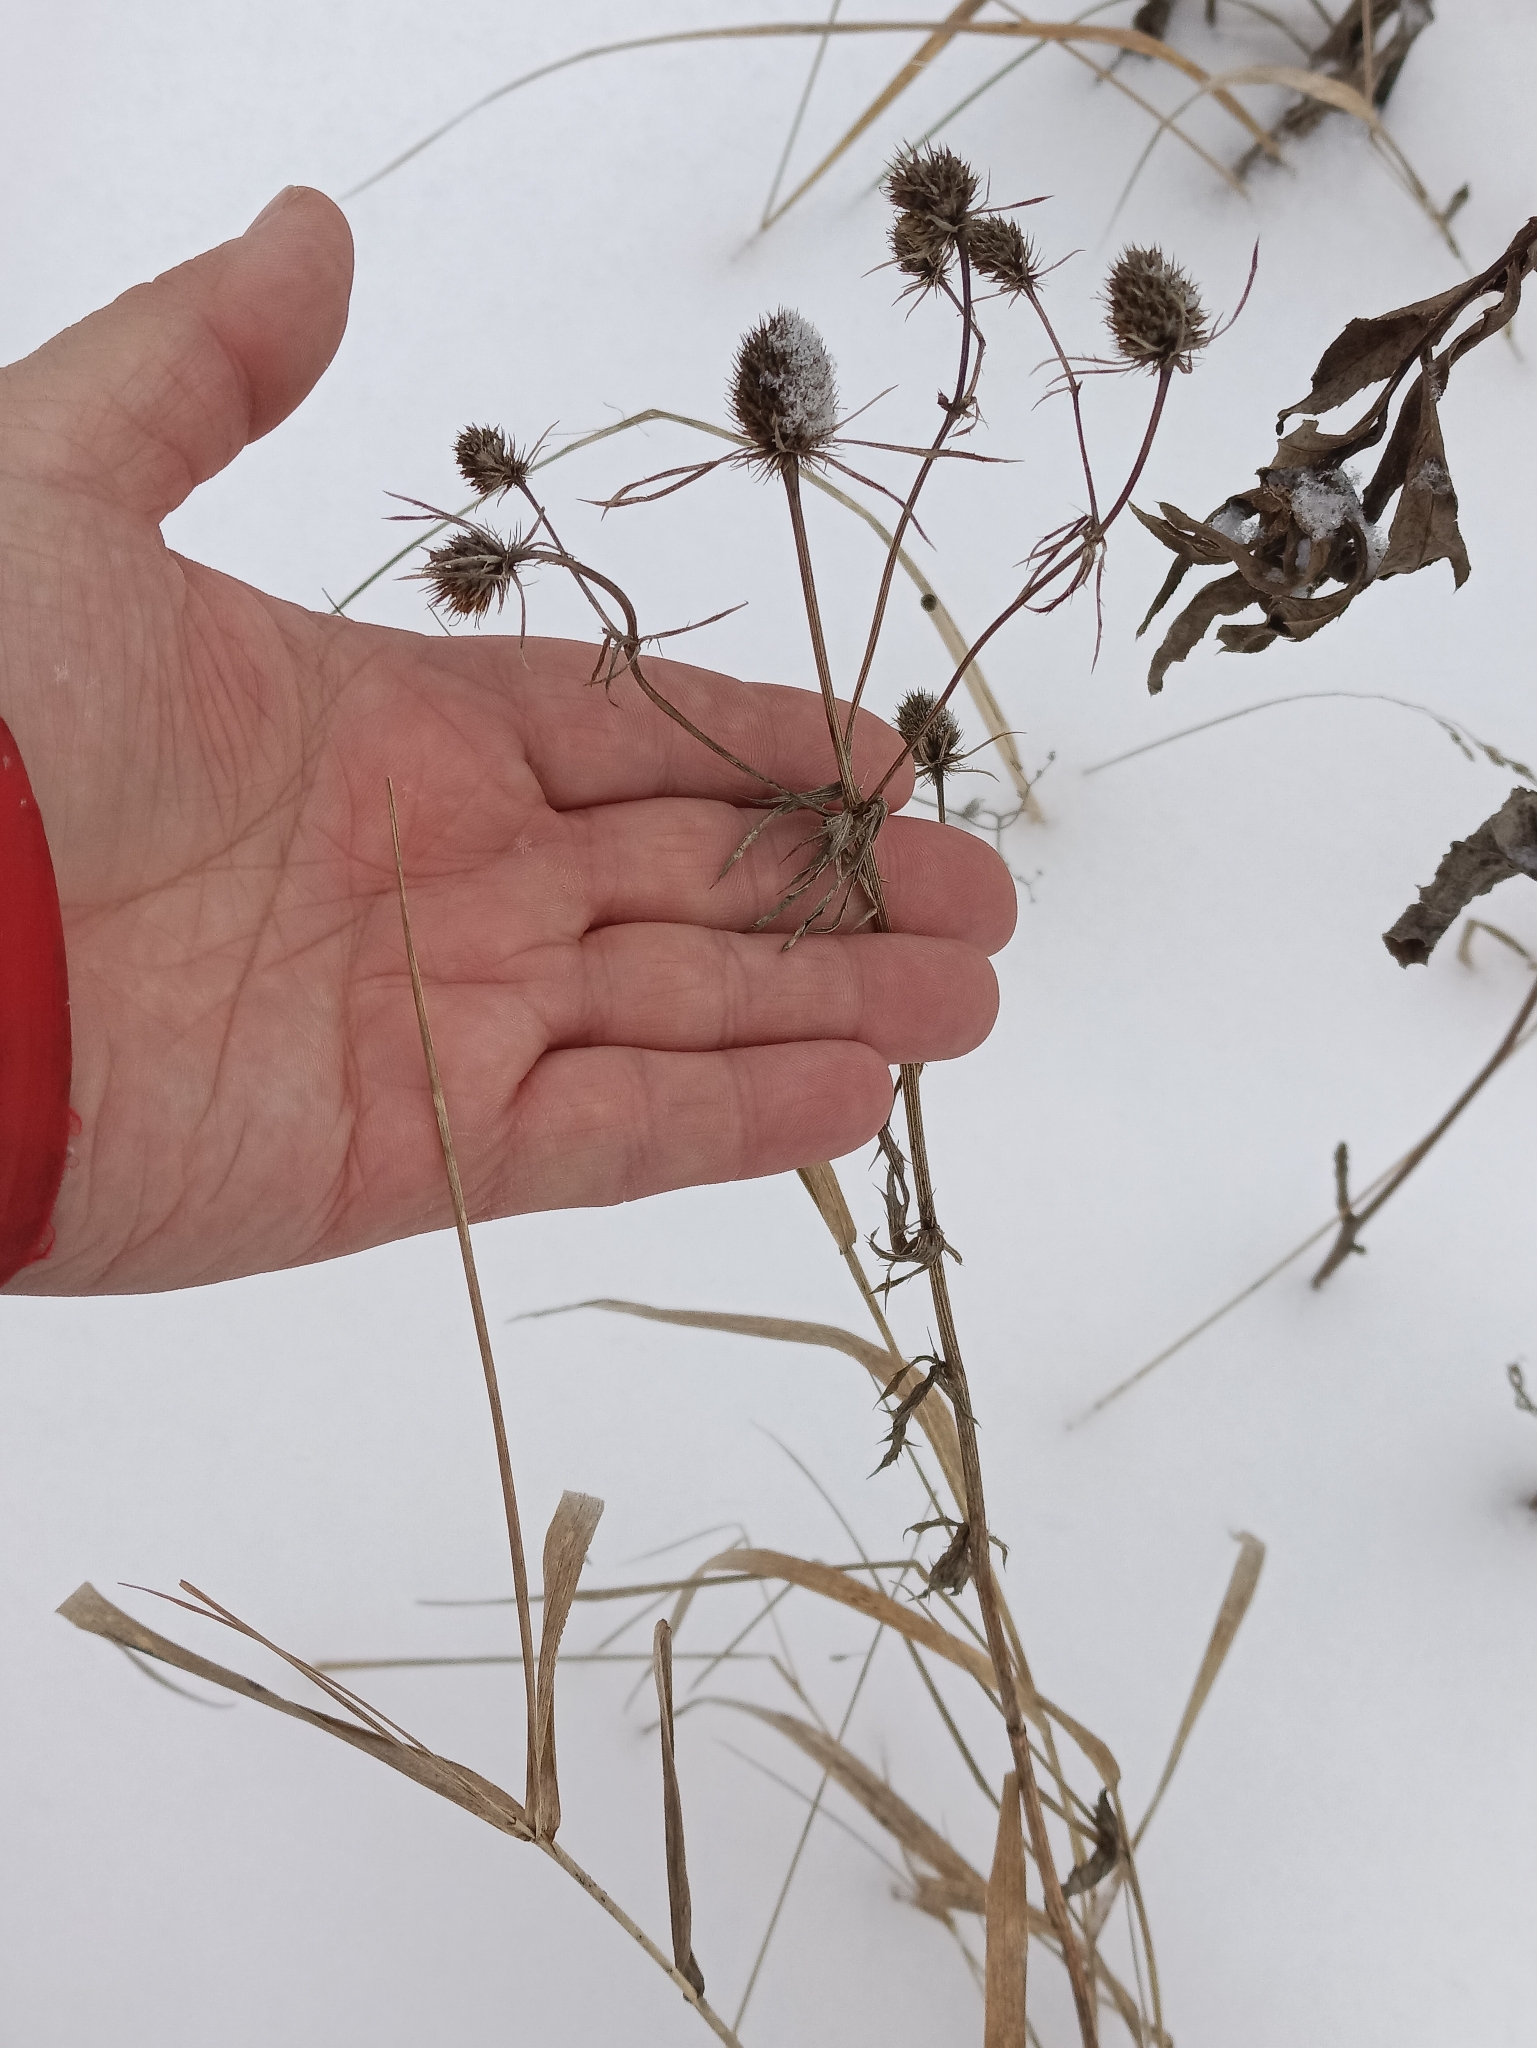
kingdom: Plantae
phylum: Tracheophyta
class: Magnoliopsida
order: Apiales
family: Apiaceae
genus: Eryngium
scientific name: Eryngium planum
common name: Blue eryngo
